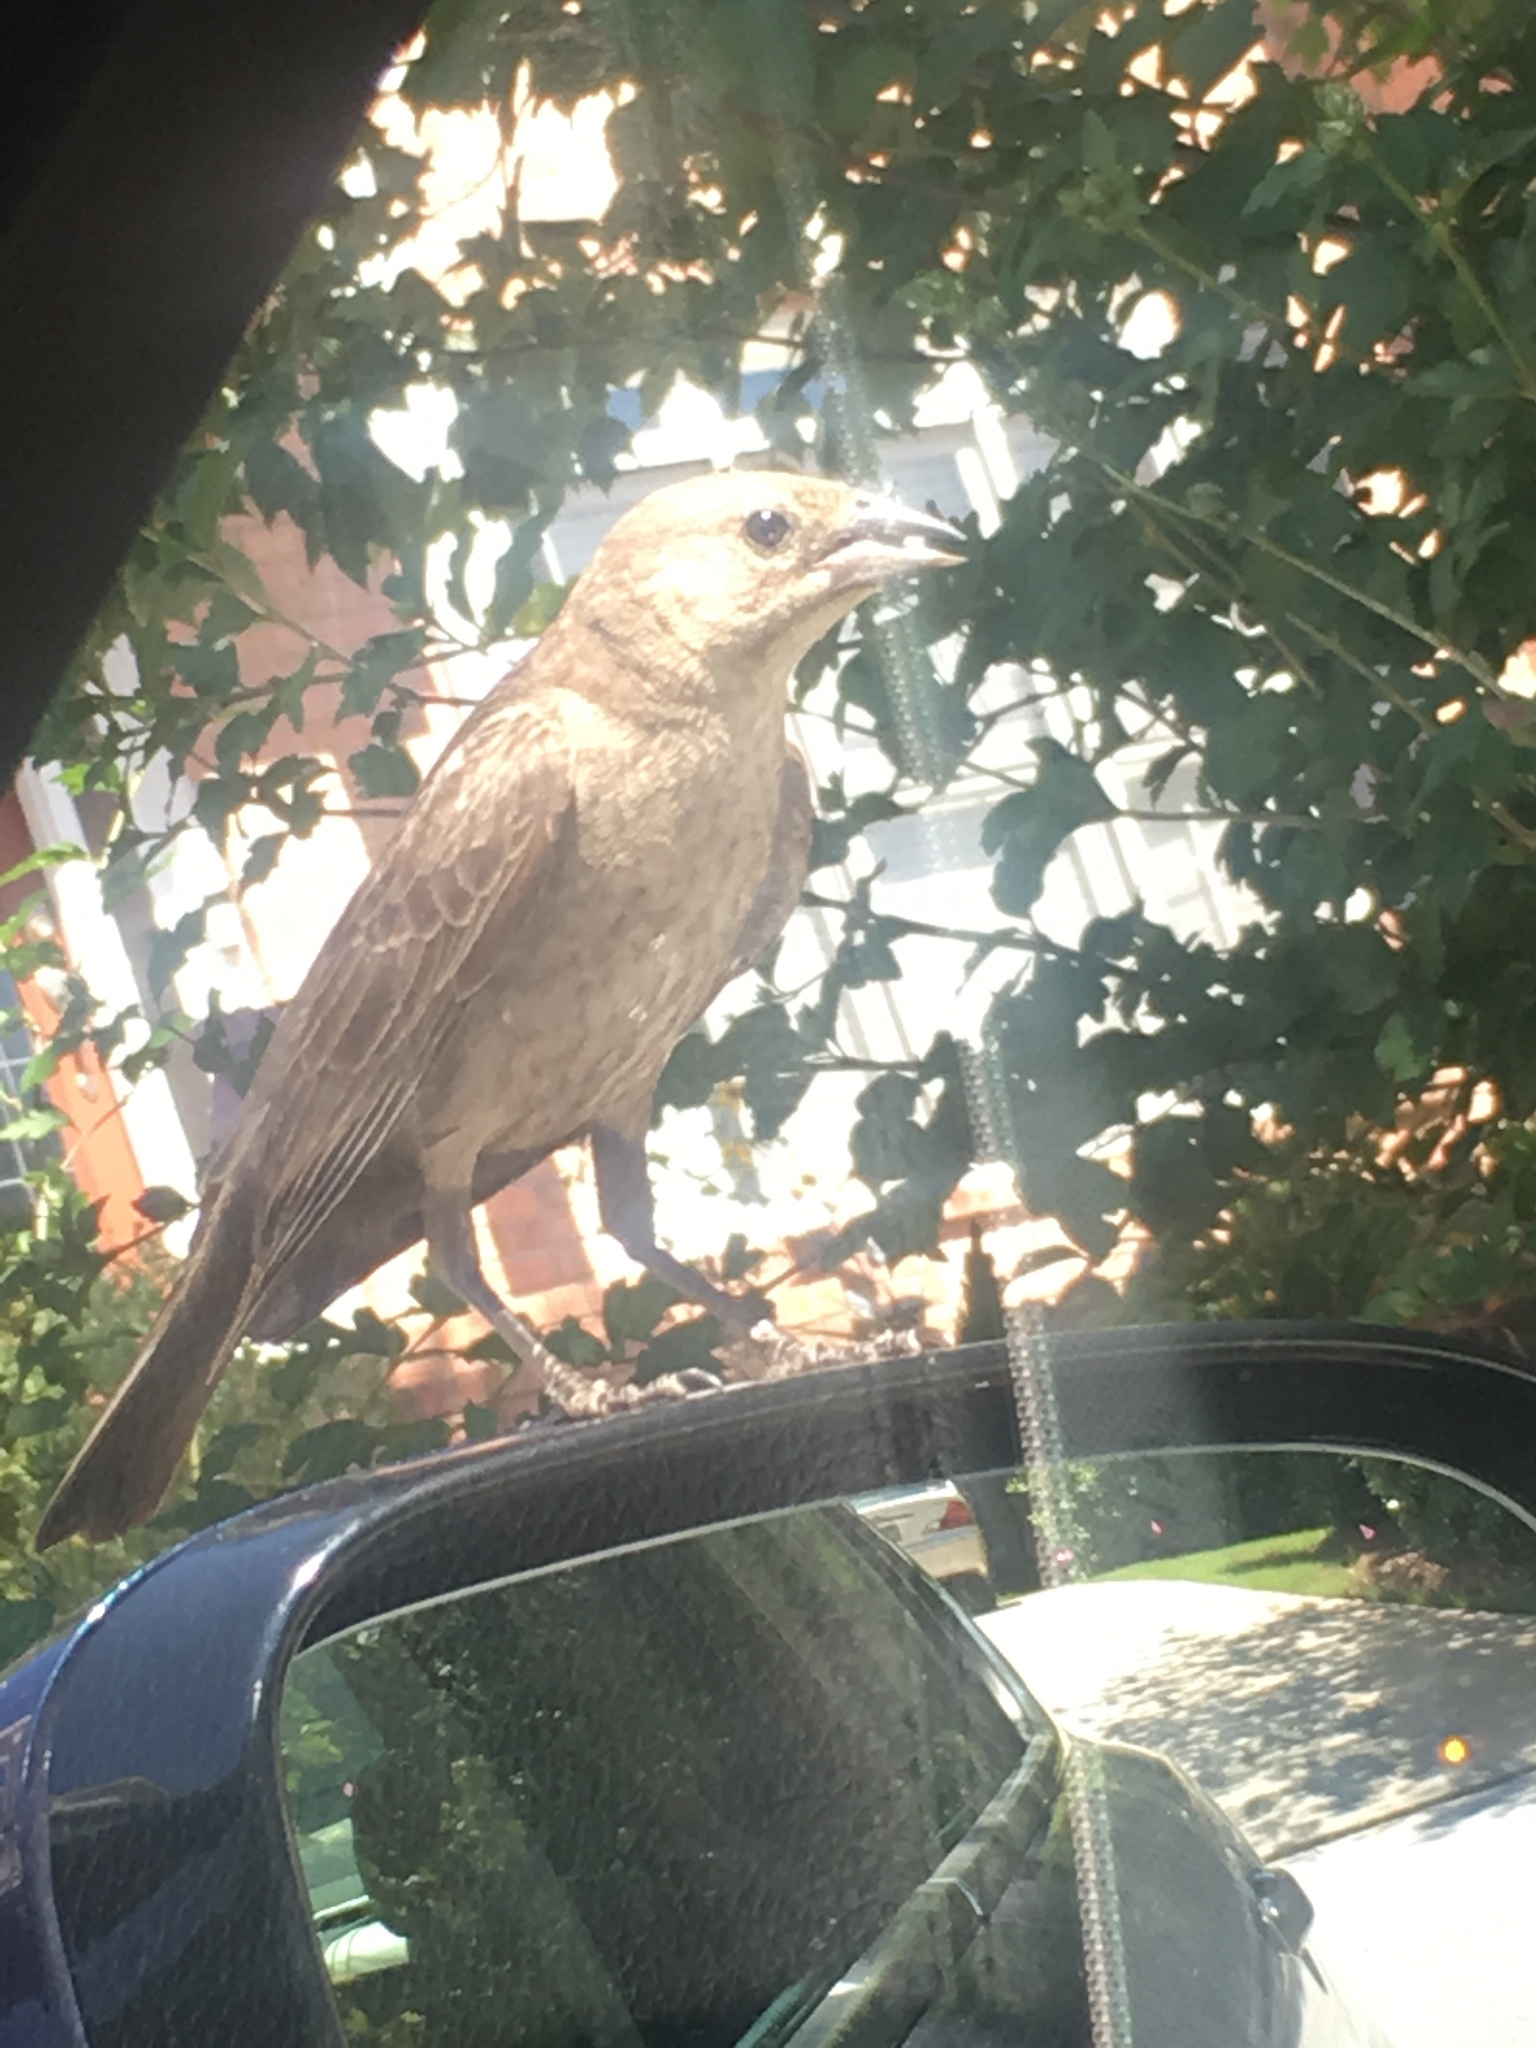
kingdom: Animalia
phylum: Chordata
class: Aves
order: Passeriformes
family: Icteridae
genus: Molothrus
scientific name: Molothrus ater
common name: Brown-headed cowbird
